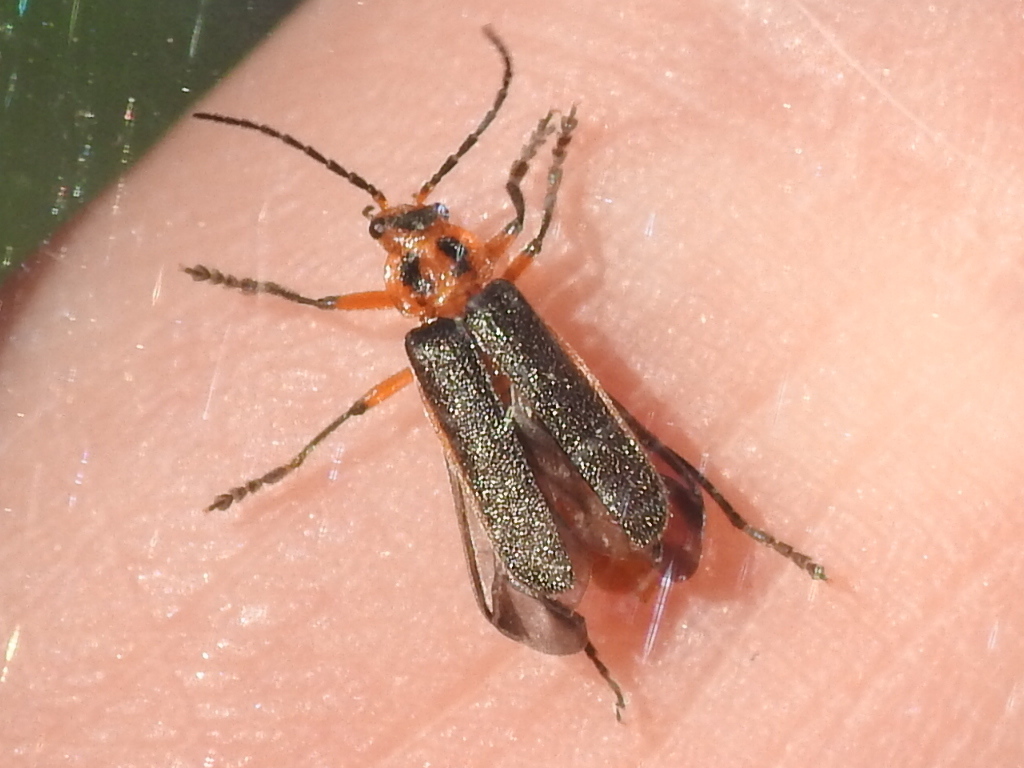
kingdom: Animalia
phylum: Arthropoda
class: Insecta
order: Coleoptera
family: Cantharidae
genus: Atalantycha
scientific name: Atalantycha bilineata
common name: Two-lined leatherwing
